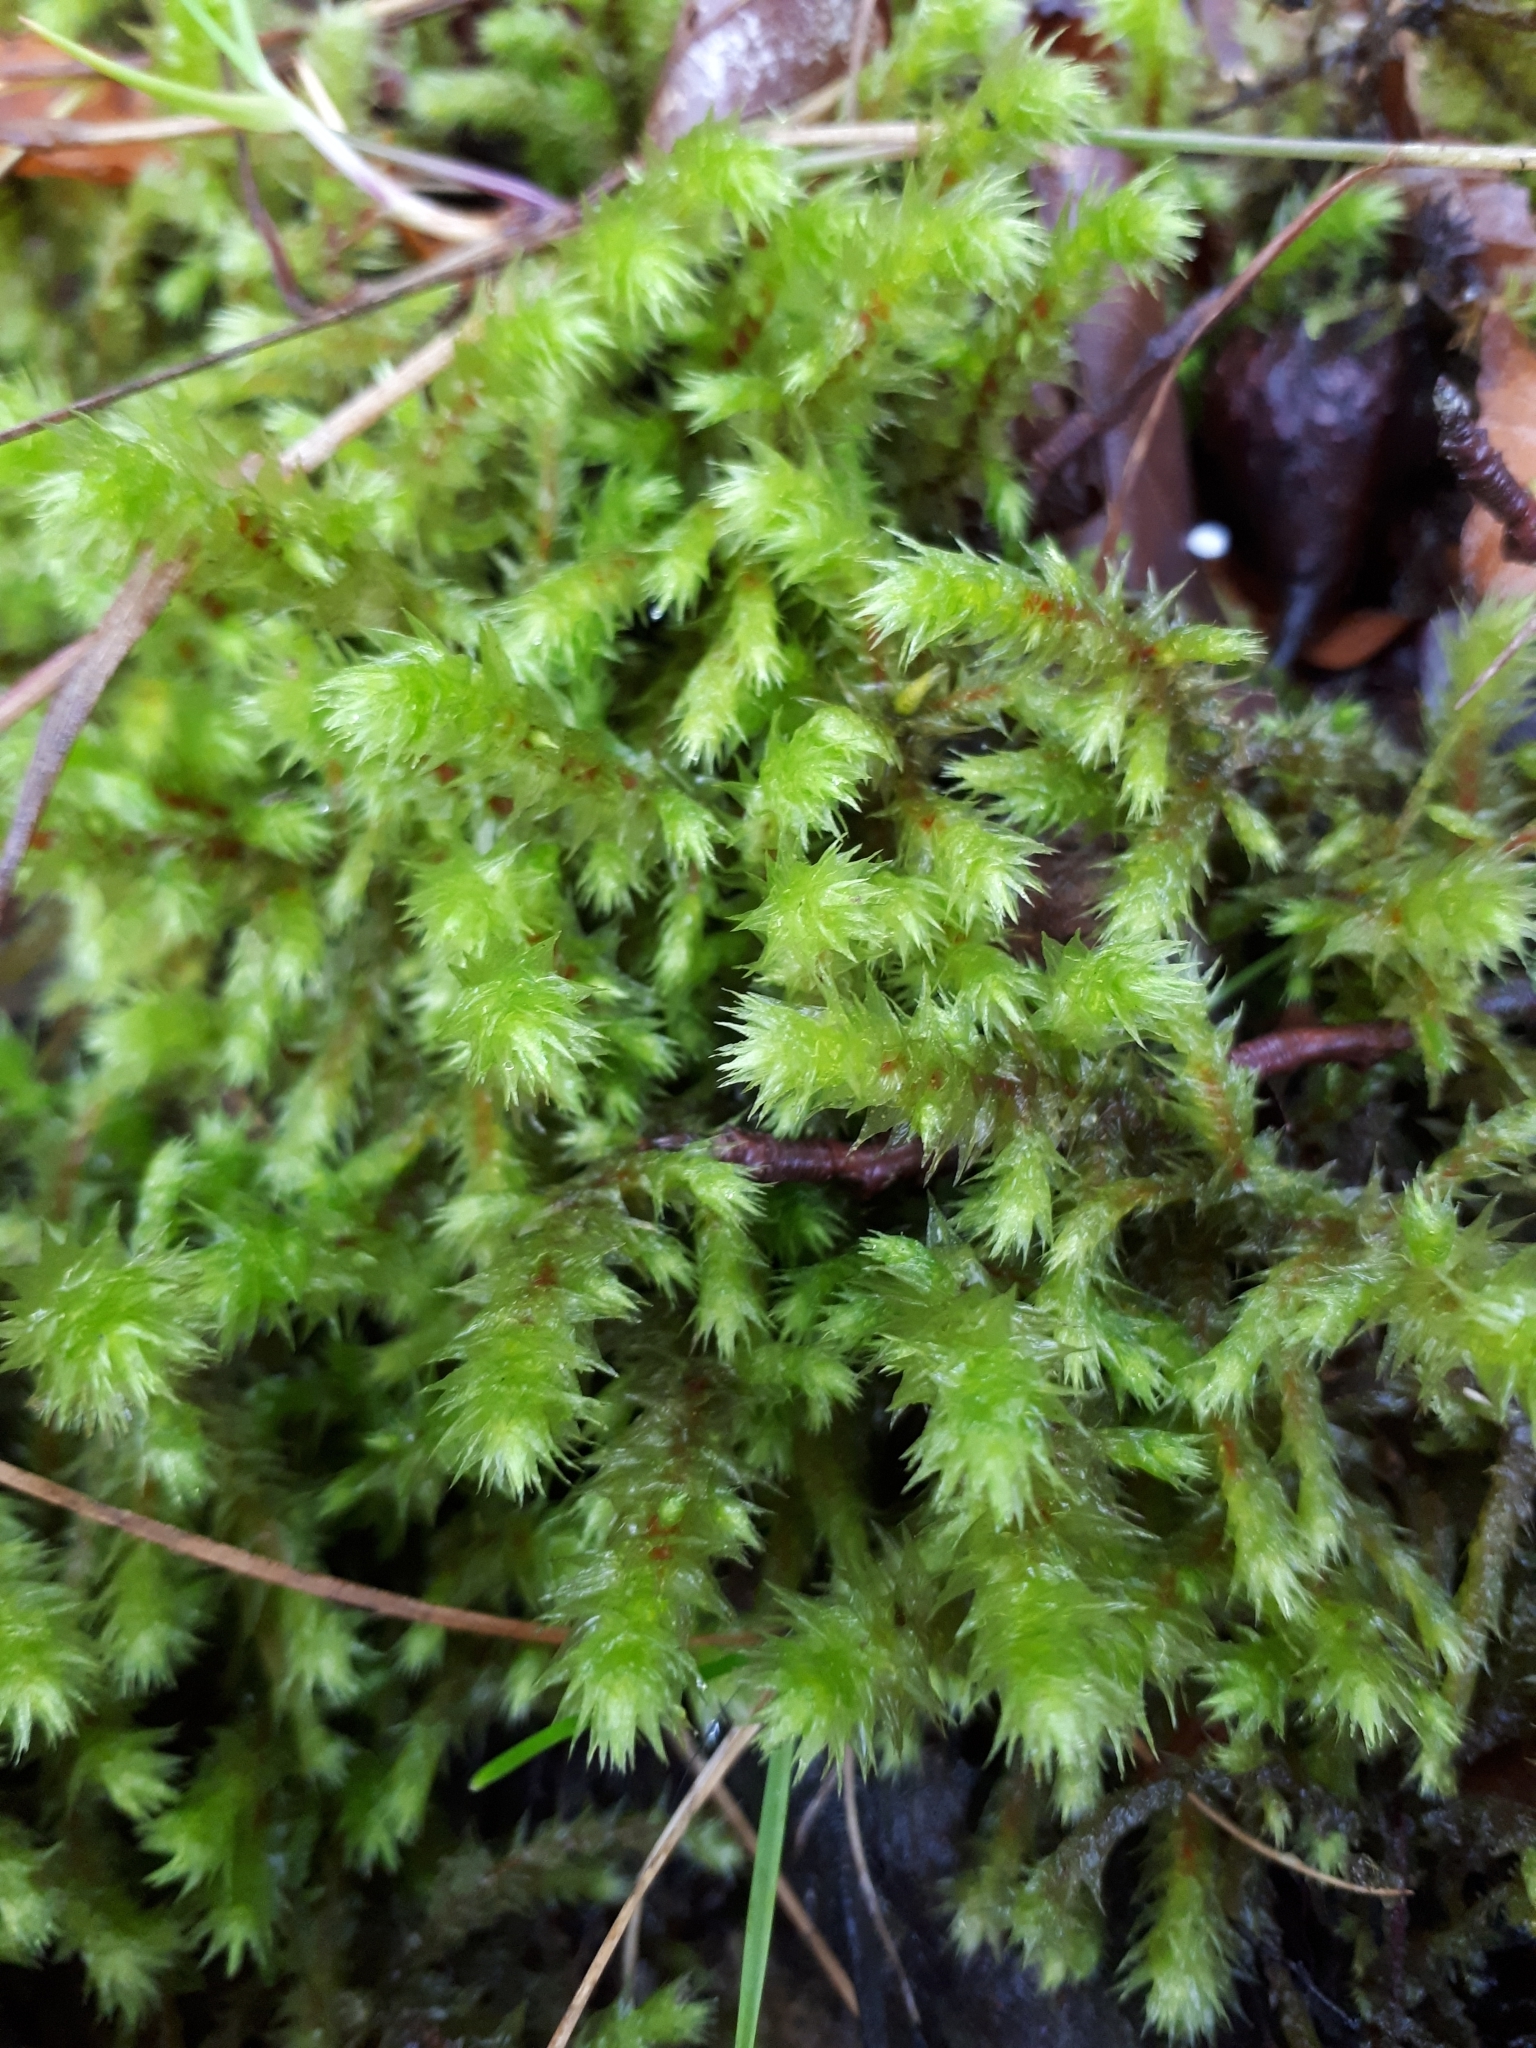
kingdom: Plantae
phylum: Bryophyta
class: Bryopsida
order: Hypnales
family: Hylocomiaceae
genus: Hylocomiadelphus
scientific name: Hylocomiadelphus triquetrus
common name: Rough goose neck moss
